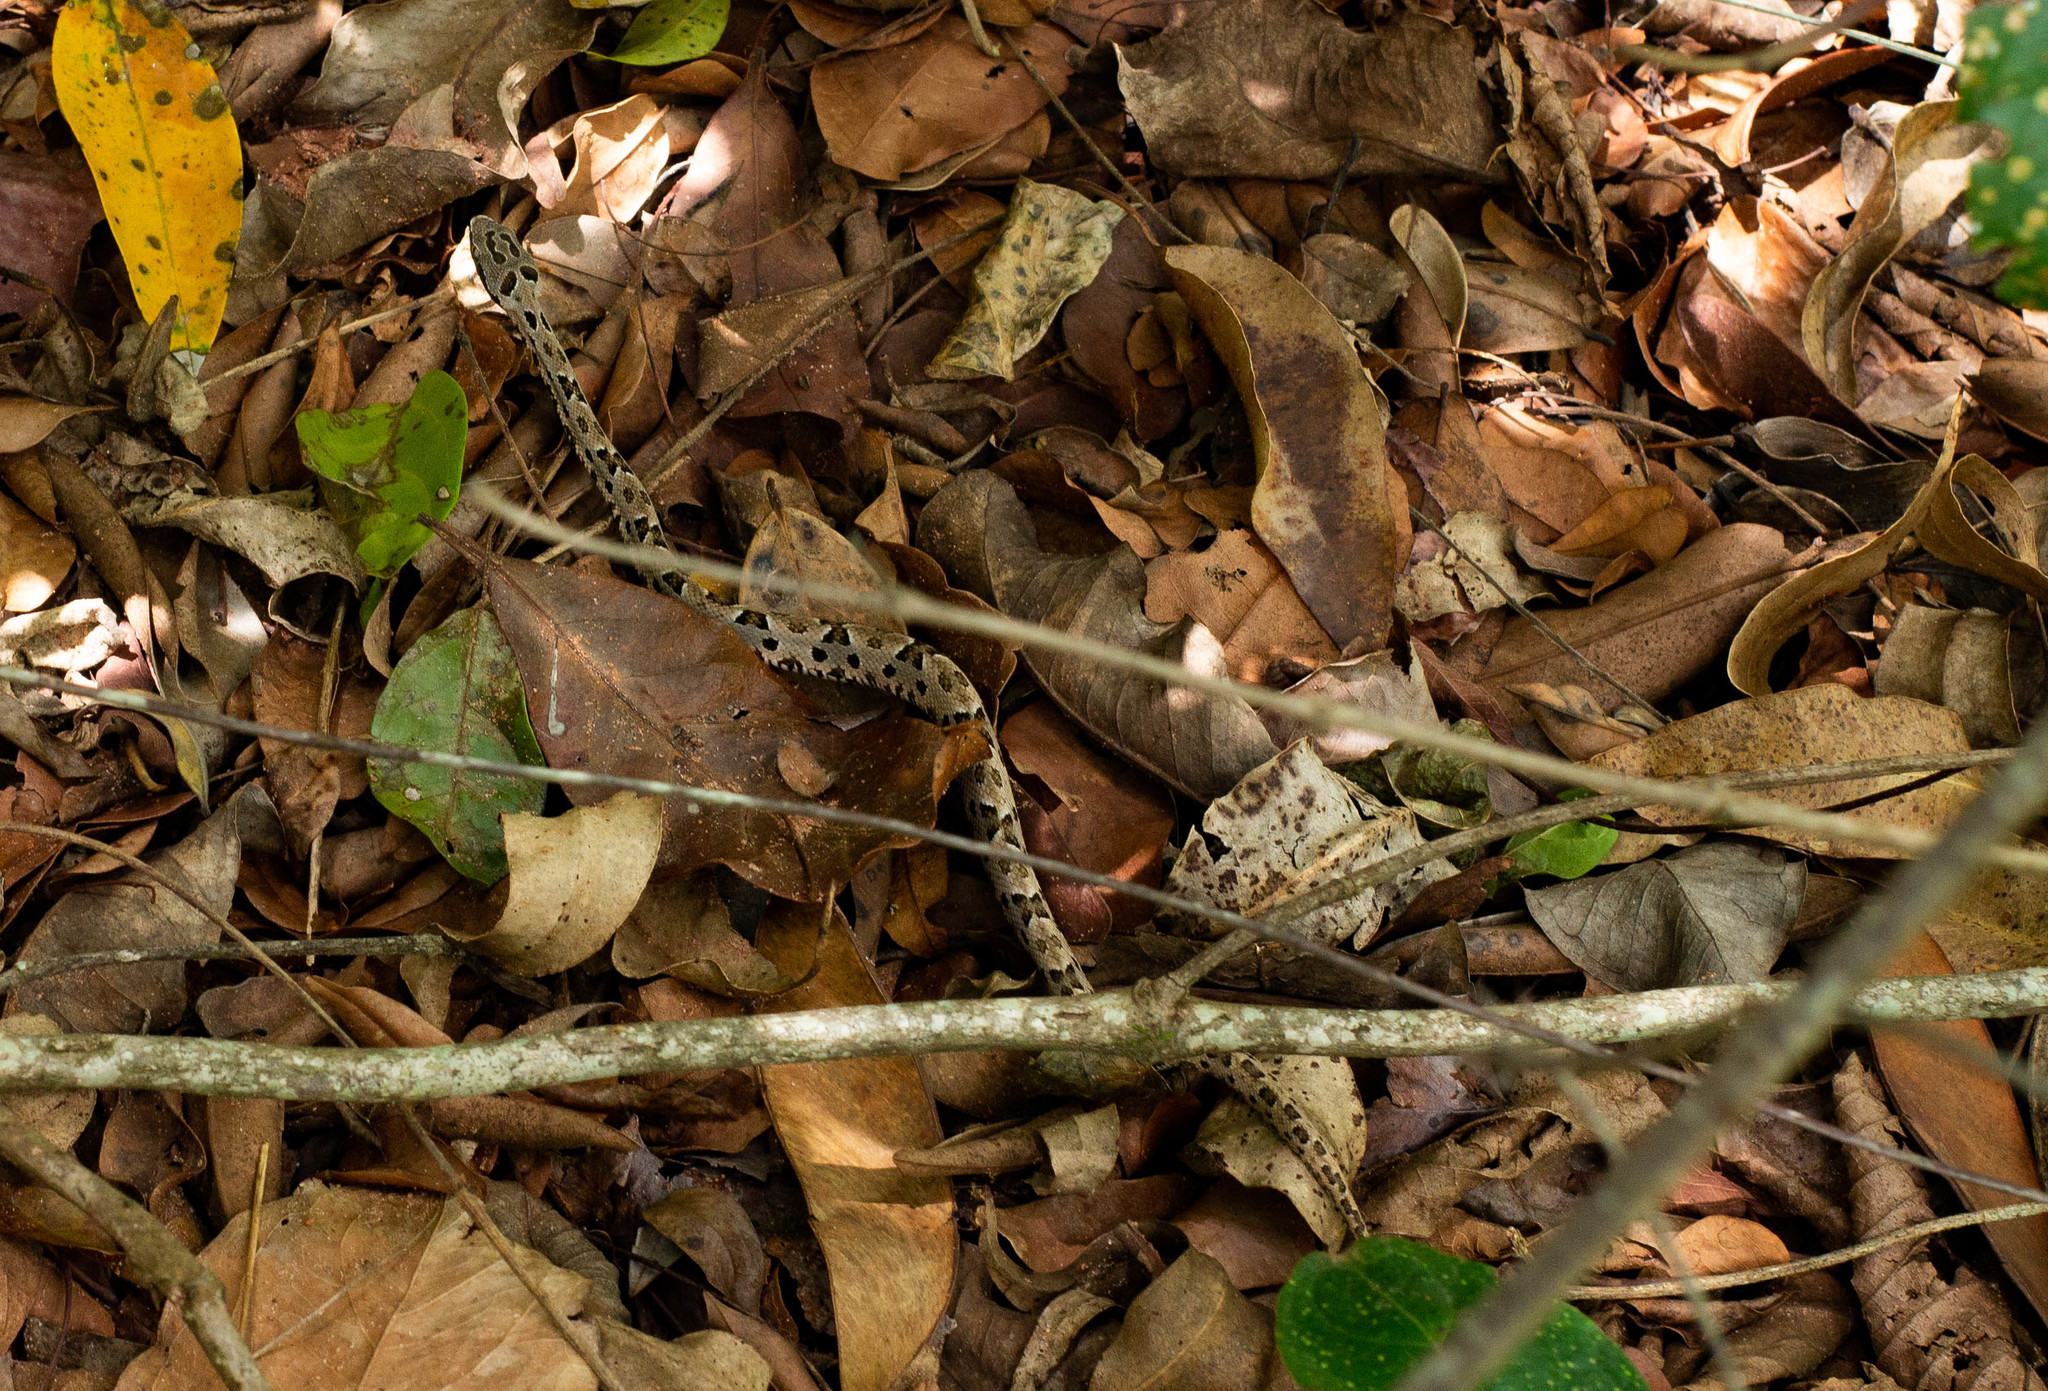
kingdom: Animalia
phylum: Chordata
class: Squamata
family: Viperidae
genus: Bothrops
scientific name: Bothrops pauloensis
